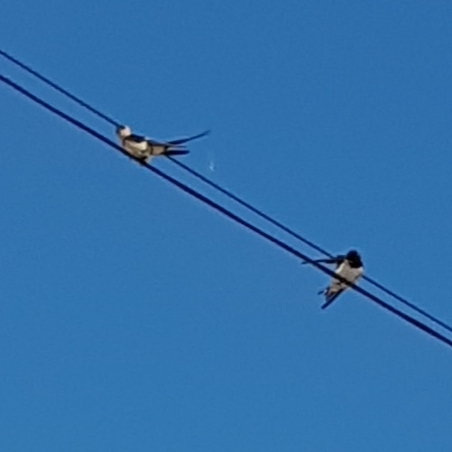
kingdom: Animalia
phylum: Chordata
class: Aves
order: Passeriformes
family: Hirundinidae
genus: Hirundo
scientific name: Hirundo rustica
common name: Barn swallow
